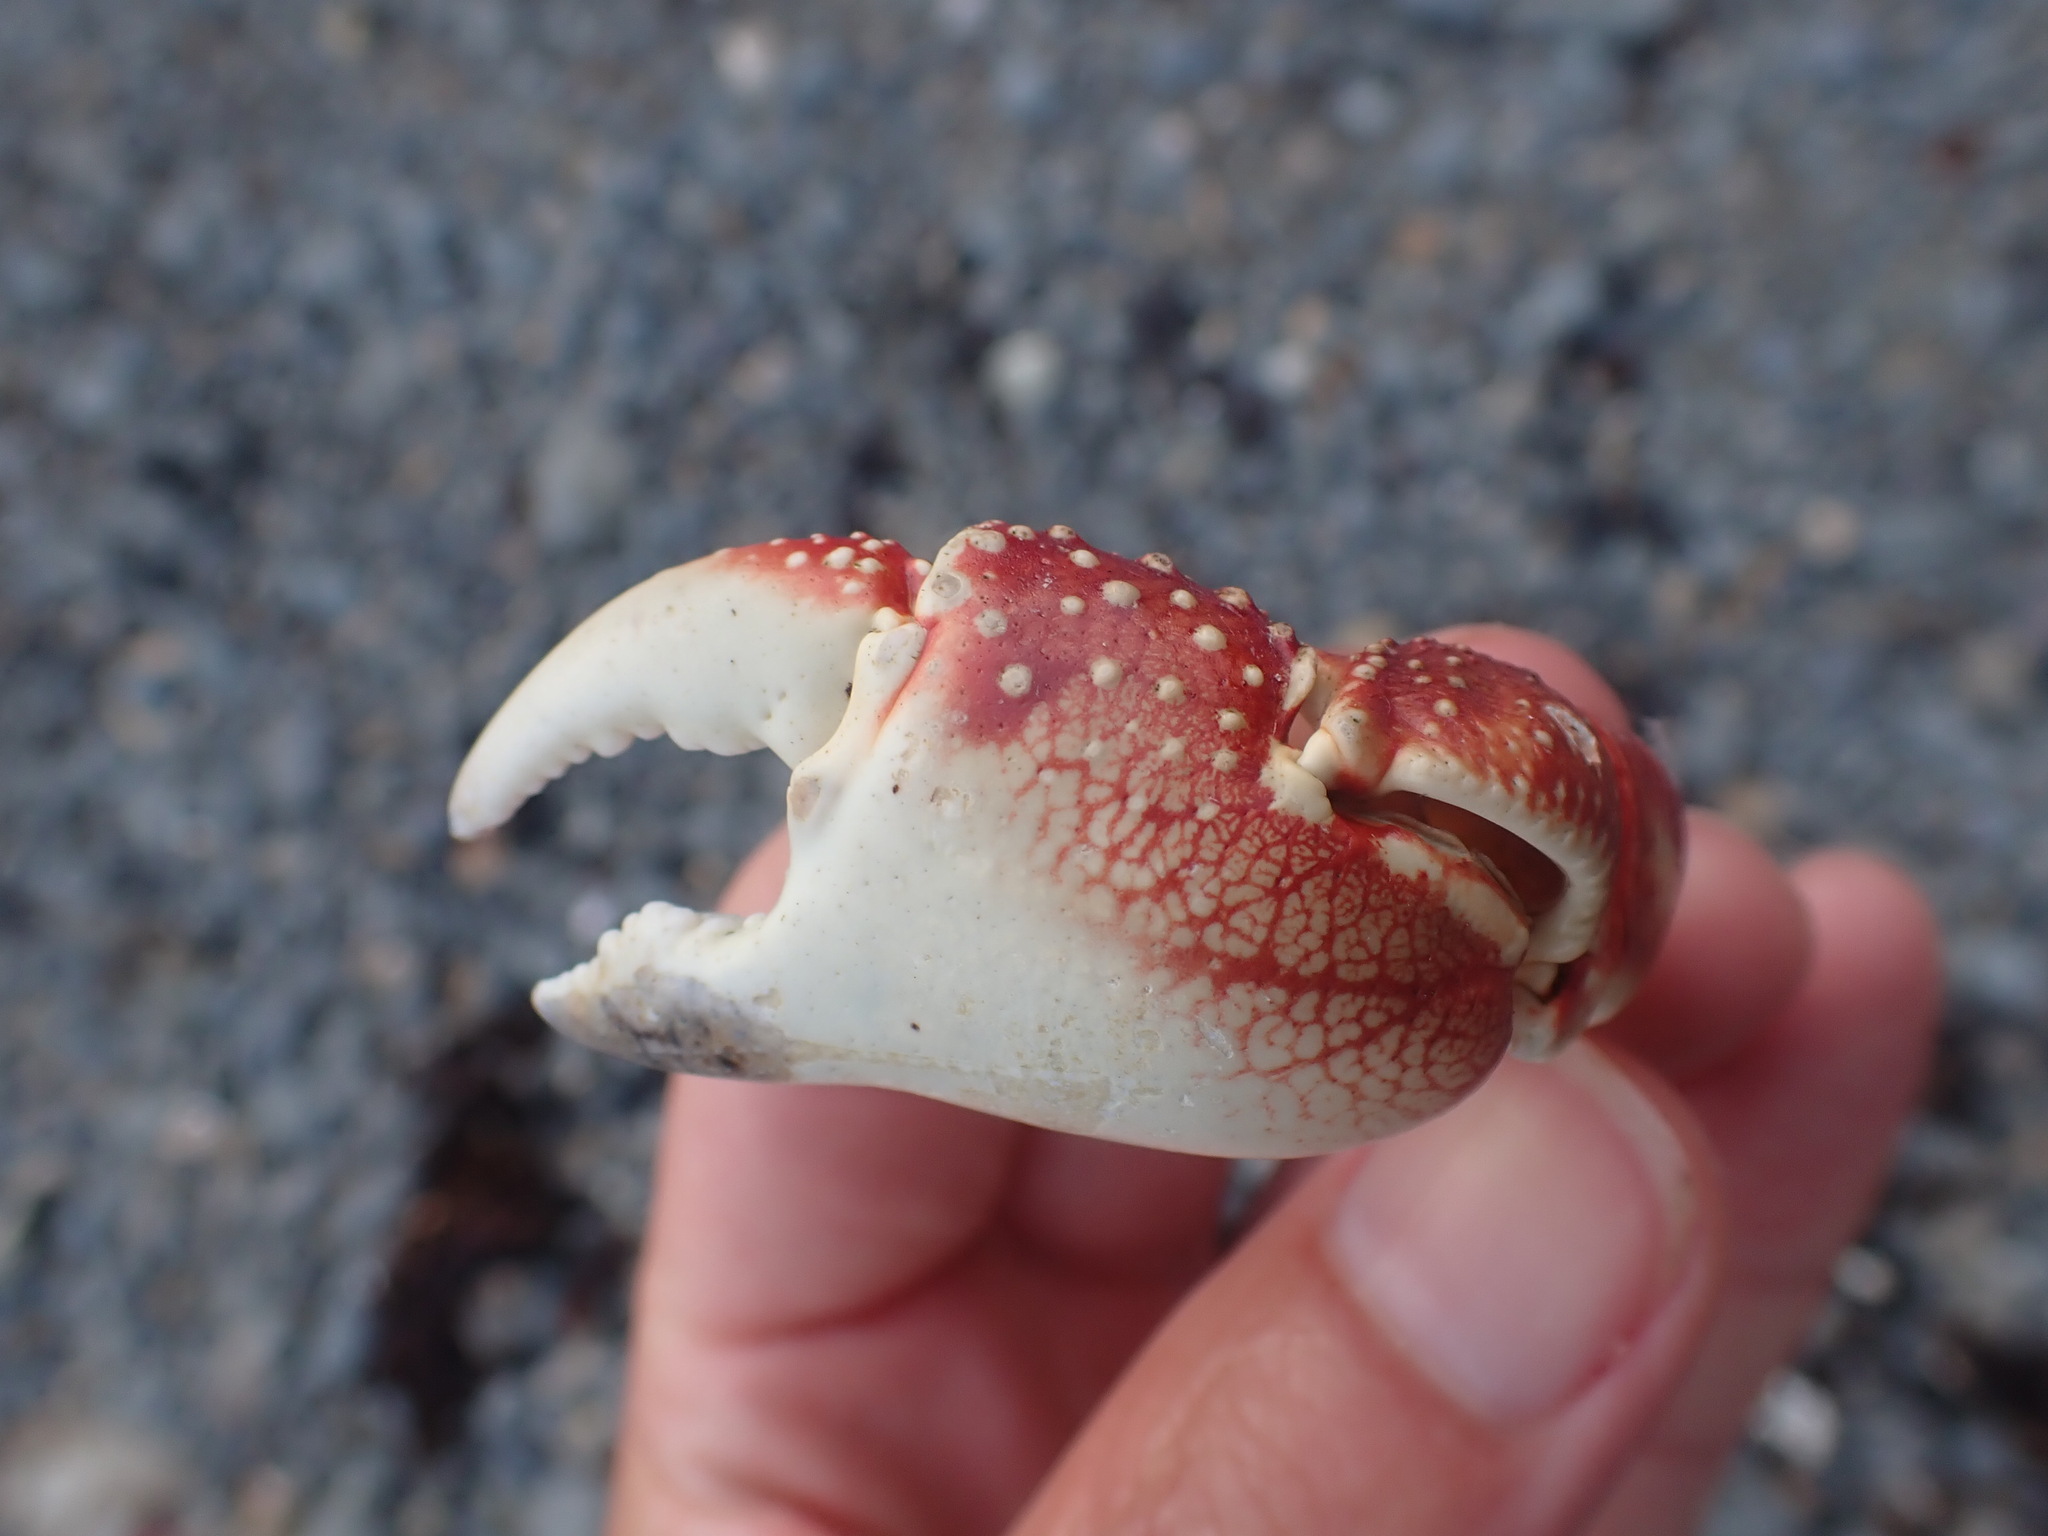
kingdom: Animalia
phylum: Arthropoda
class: Malacostraca
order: Decapoda
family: Grapsidae
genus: Leptograpsus
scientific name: Leptograpsus variegatus
